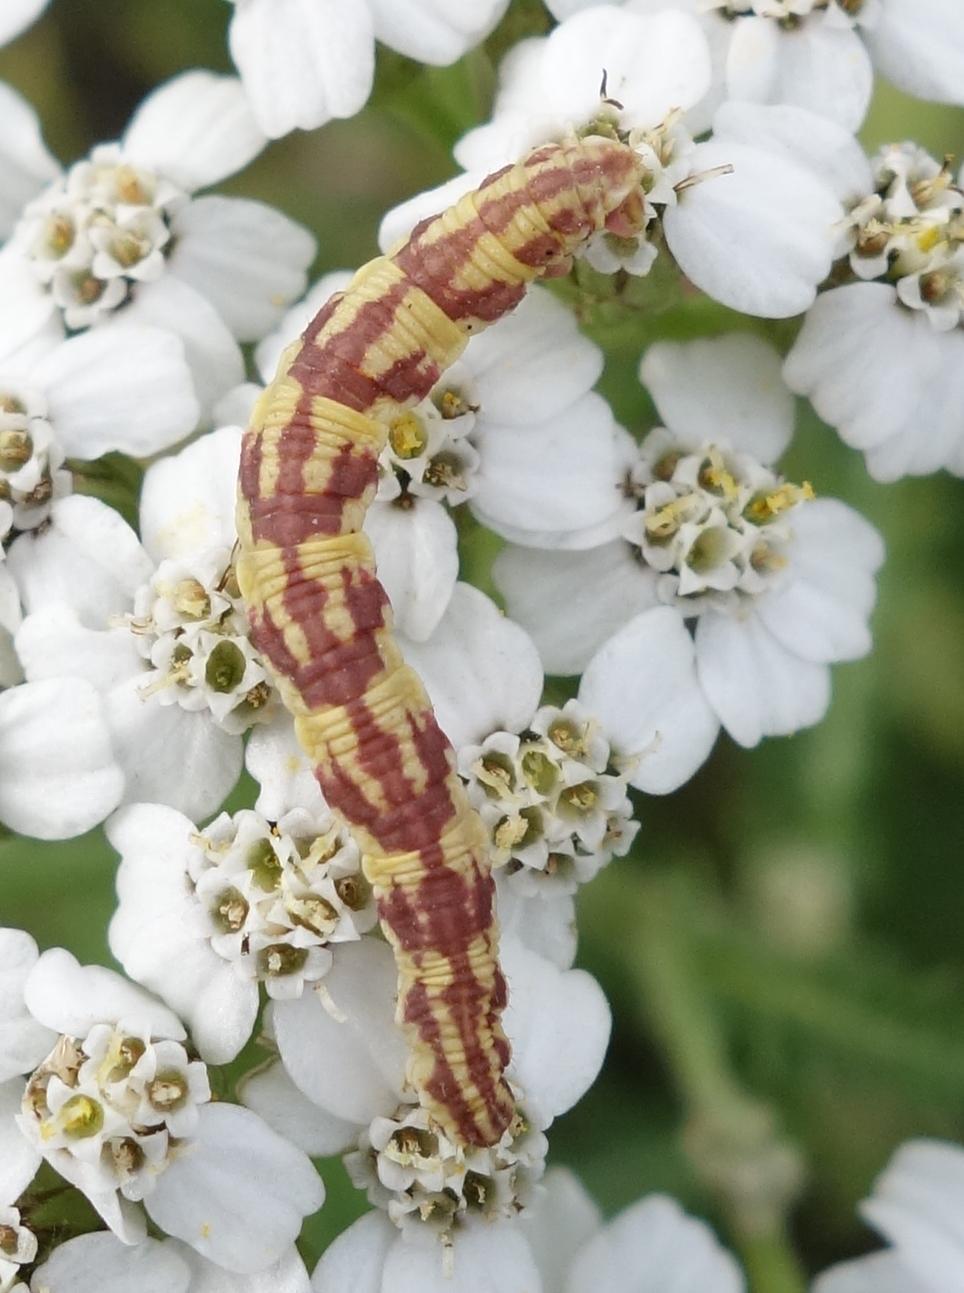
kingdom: Animalia
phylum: Arthropoda
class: Insecta
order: Lepidoptera
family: Geometridae
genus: Eupithecia
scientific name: Eupithecia centaureata
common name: Lime-speck pug
